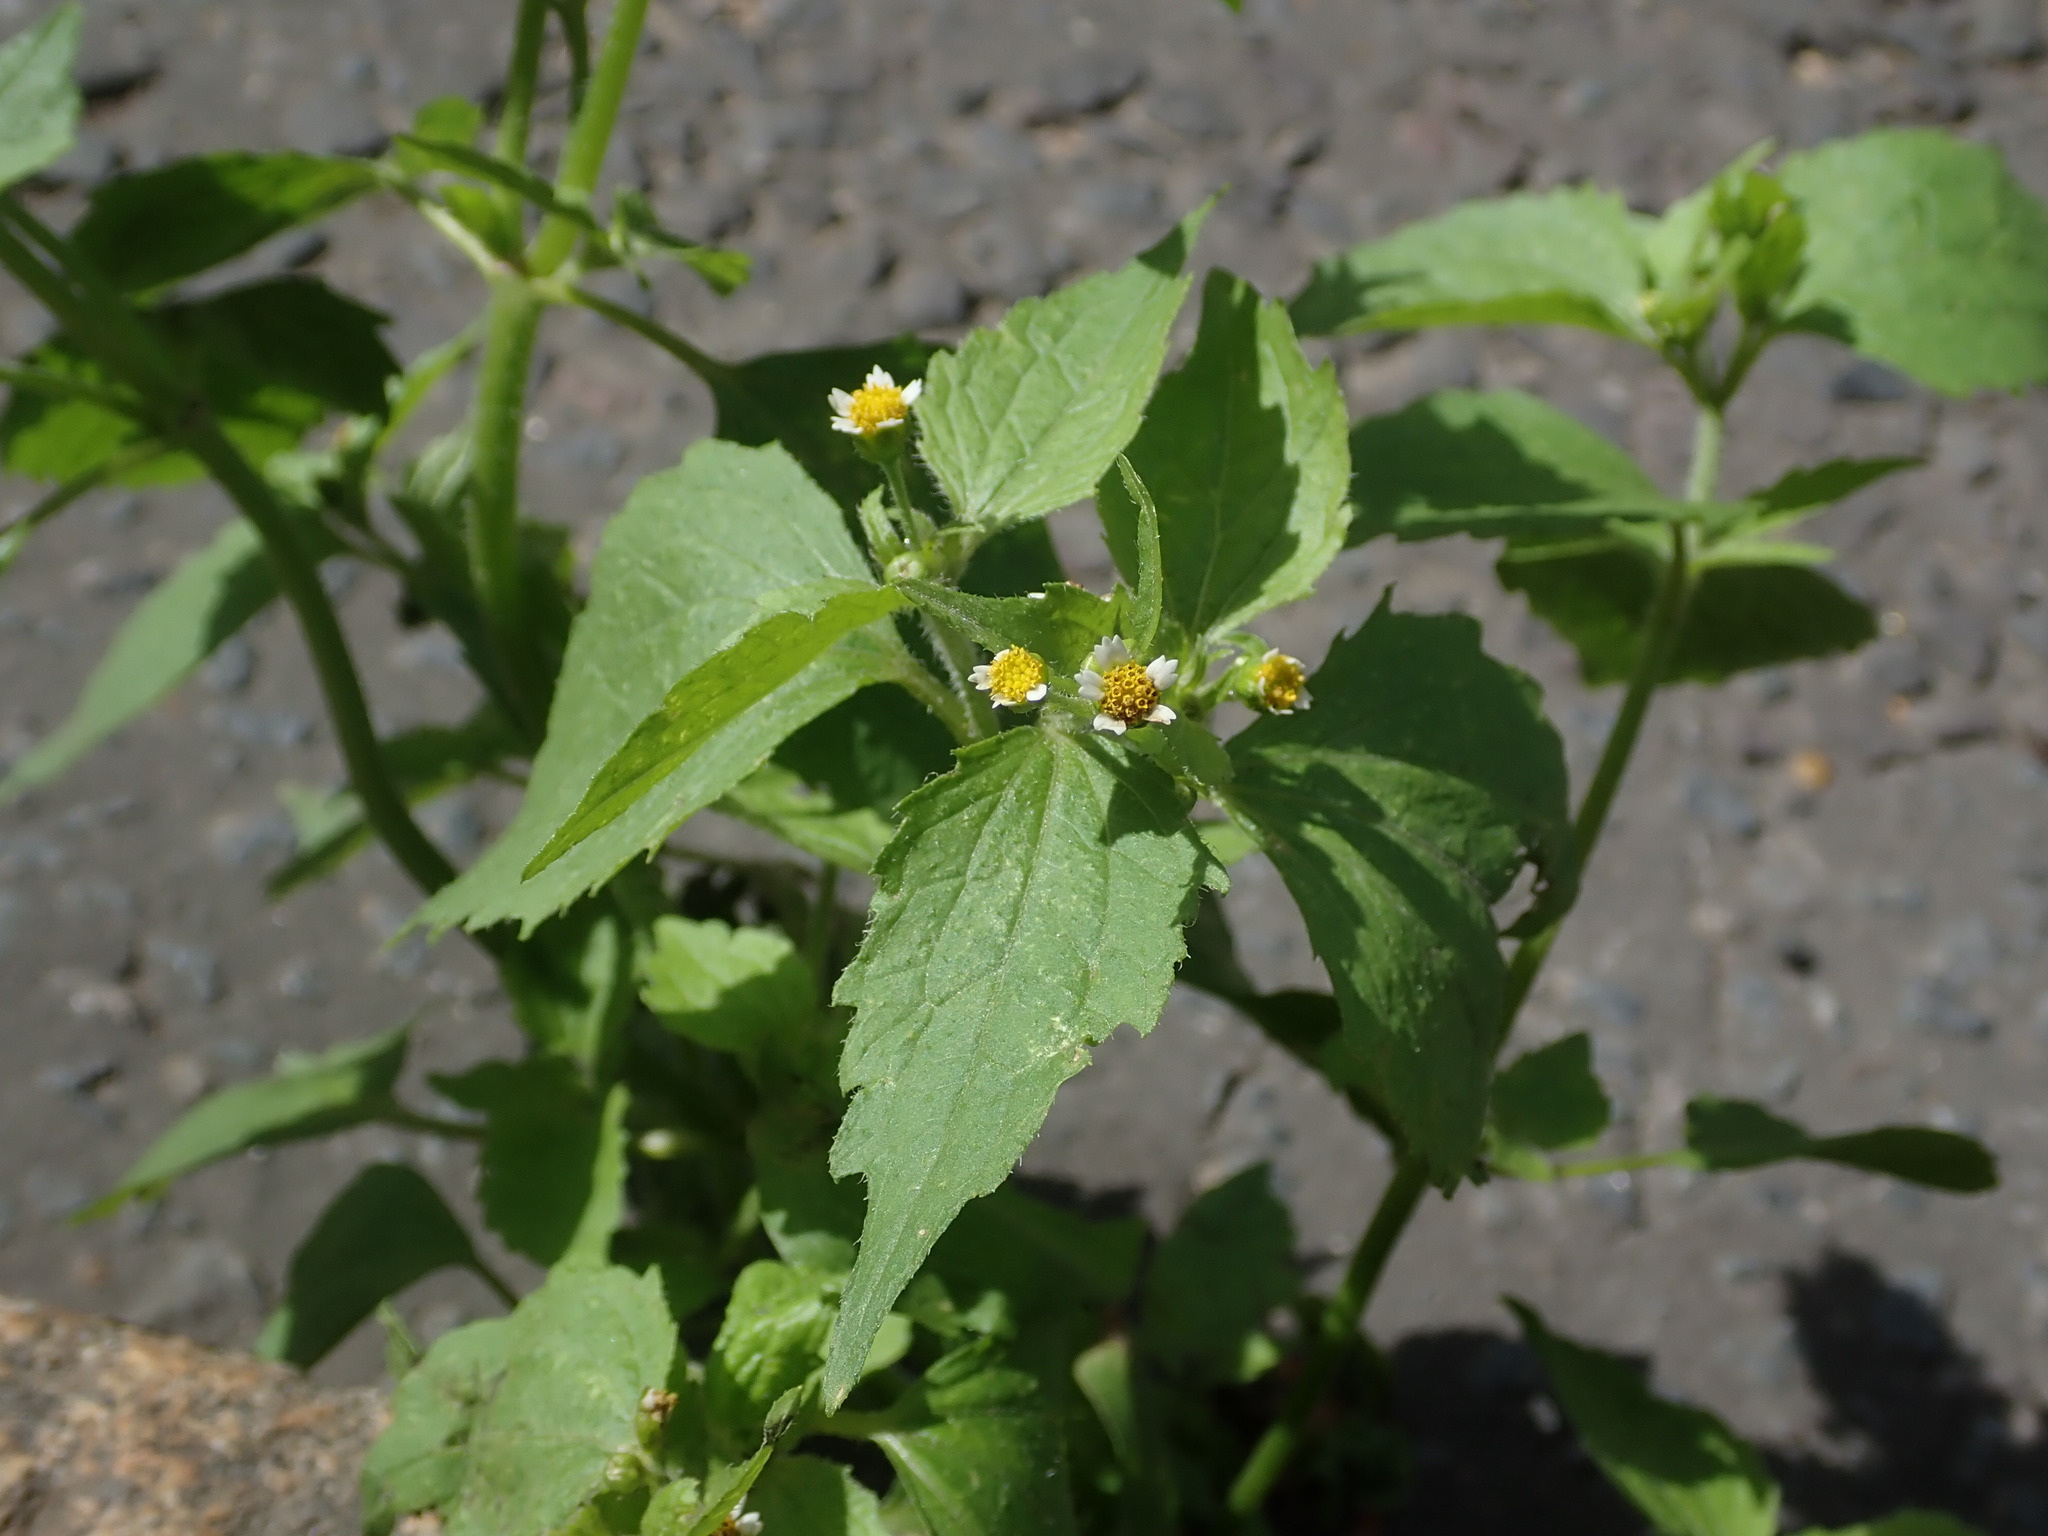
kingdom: Plantae
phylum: Tracheophyta
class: Magnoliopsida
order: Asterales
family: Asteraceae
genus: Galinsoga
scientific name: Galinsoga quadriradiata
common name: Shaggy soldier
